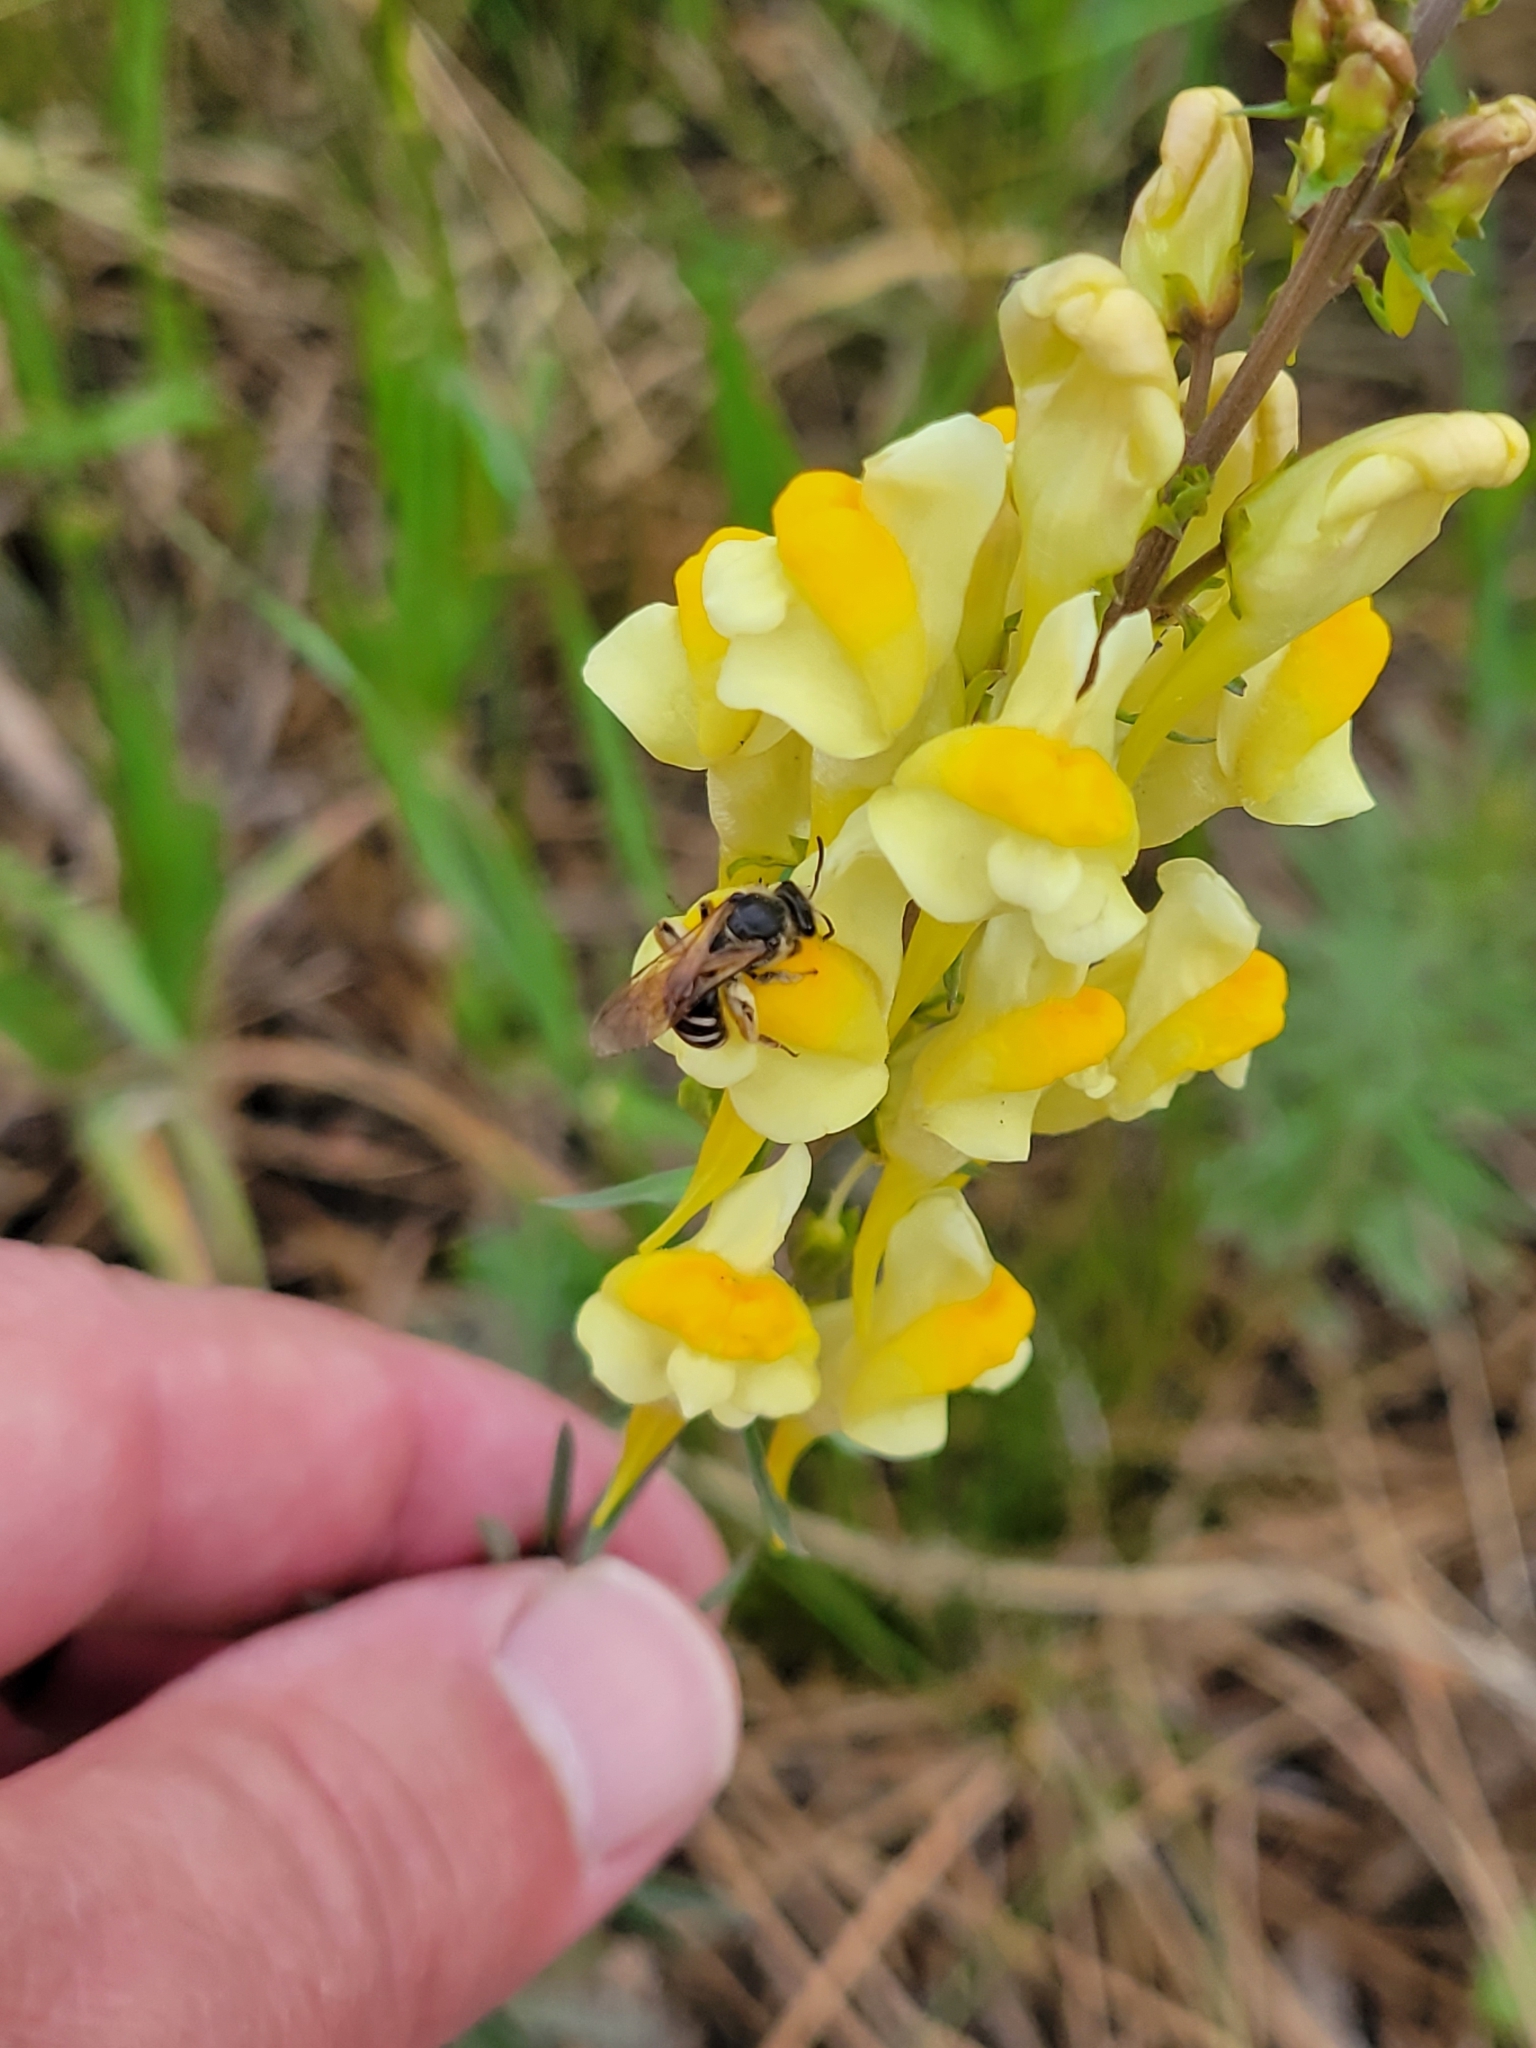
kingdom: Plantae
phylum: Tracheophyta
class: Magnoliopsida
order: Lamiales
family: Plantaginaceae
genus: Linaria
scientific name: Linaria vulgaris
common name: Butter and eggs
